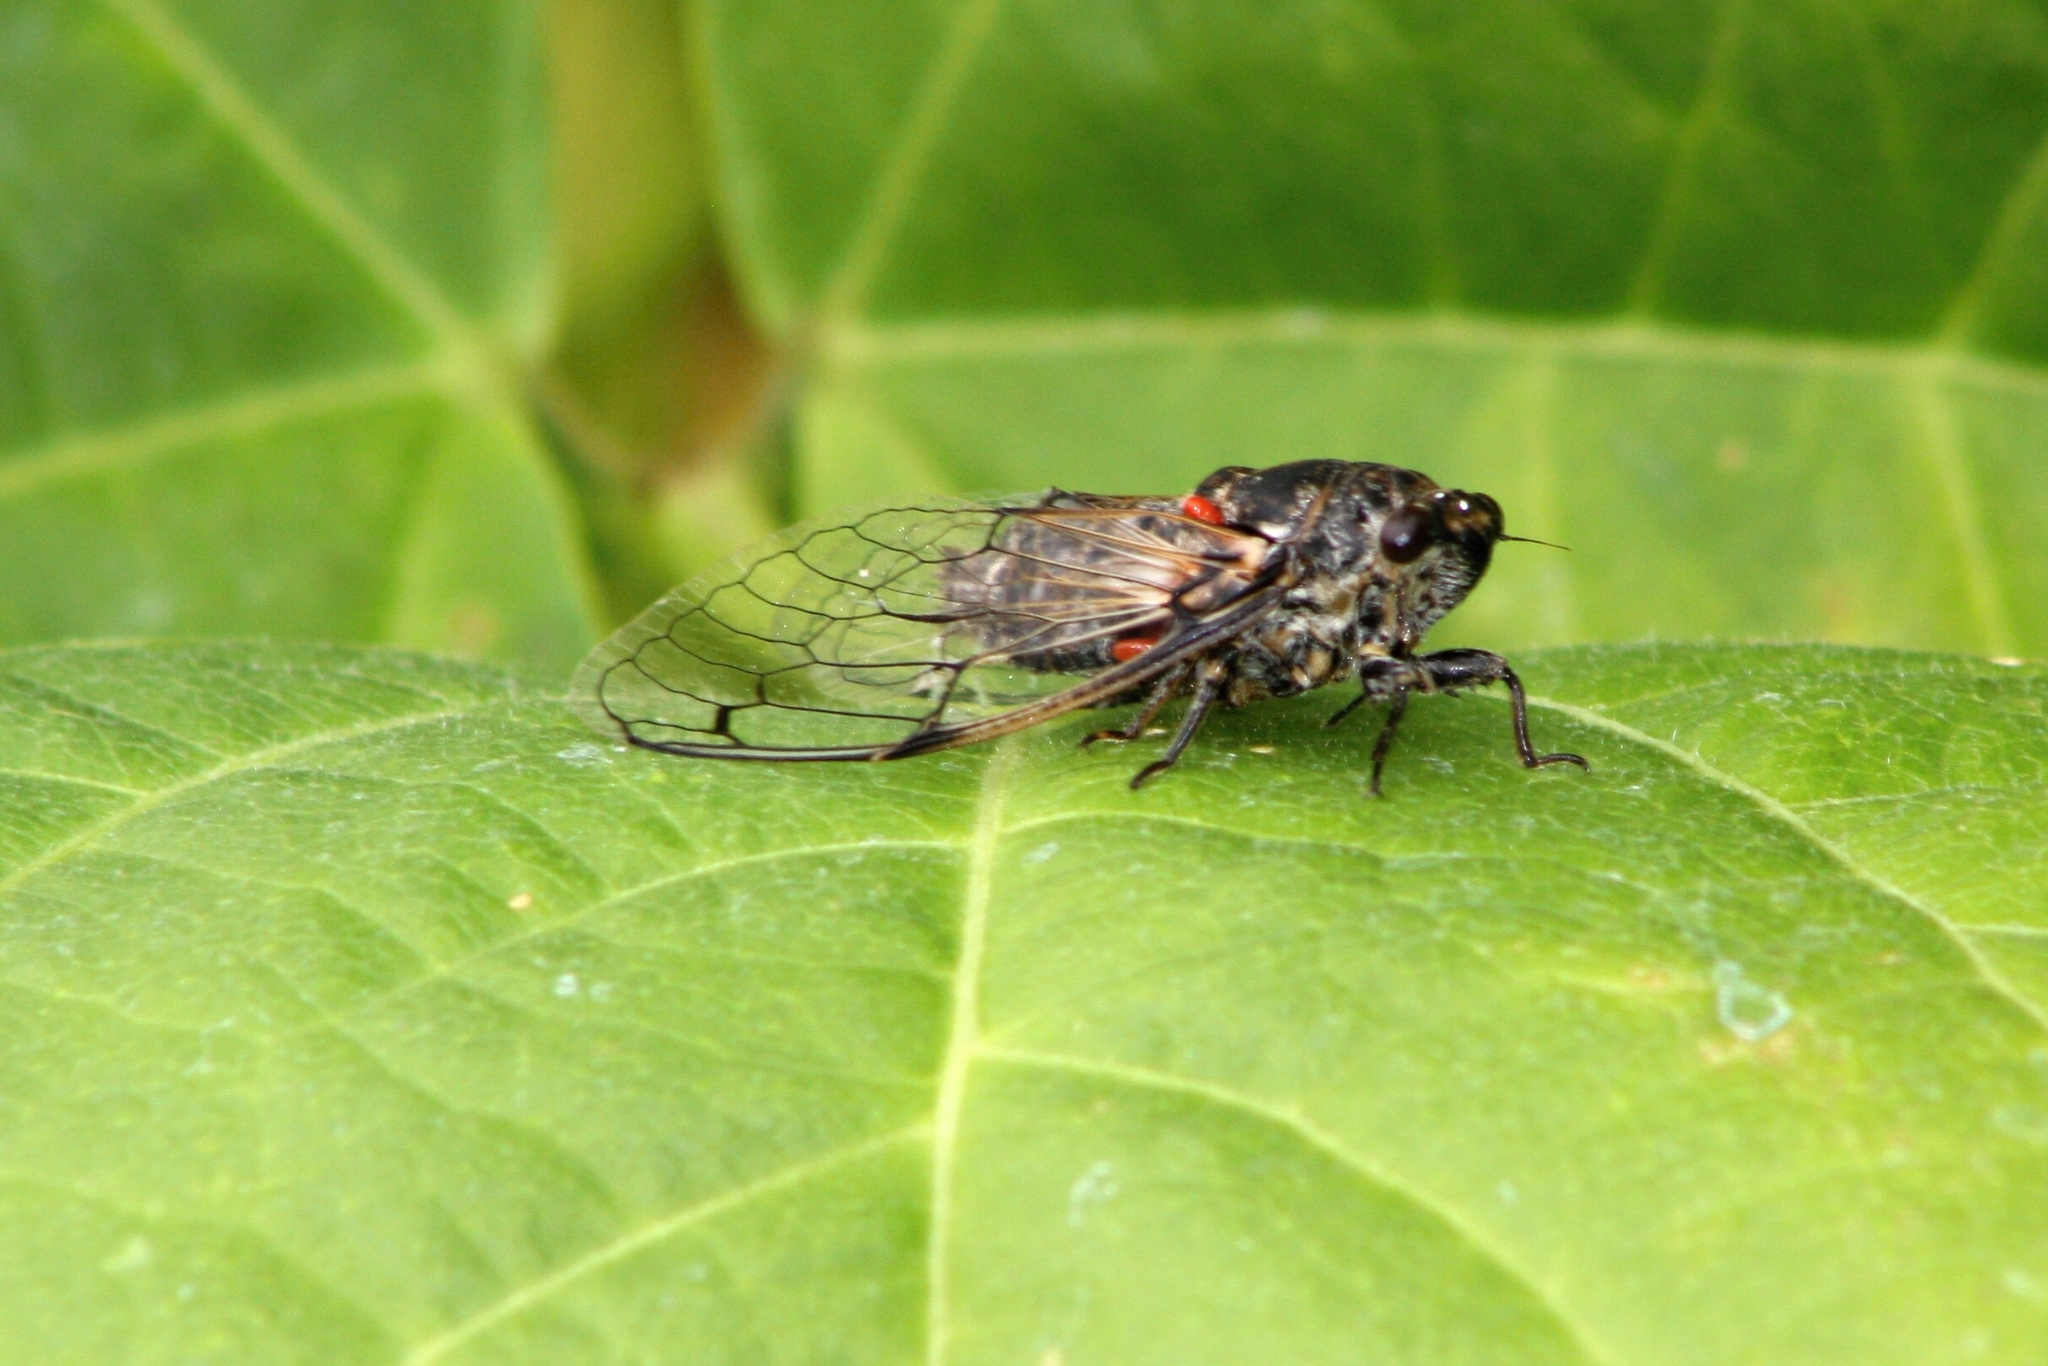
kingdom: Animalia
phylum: Arthropoda
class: Insecta
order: Hemiptera
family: Cicadidae
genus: Cicadatra
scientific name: Cicadatra atra
